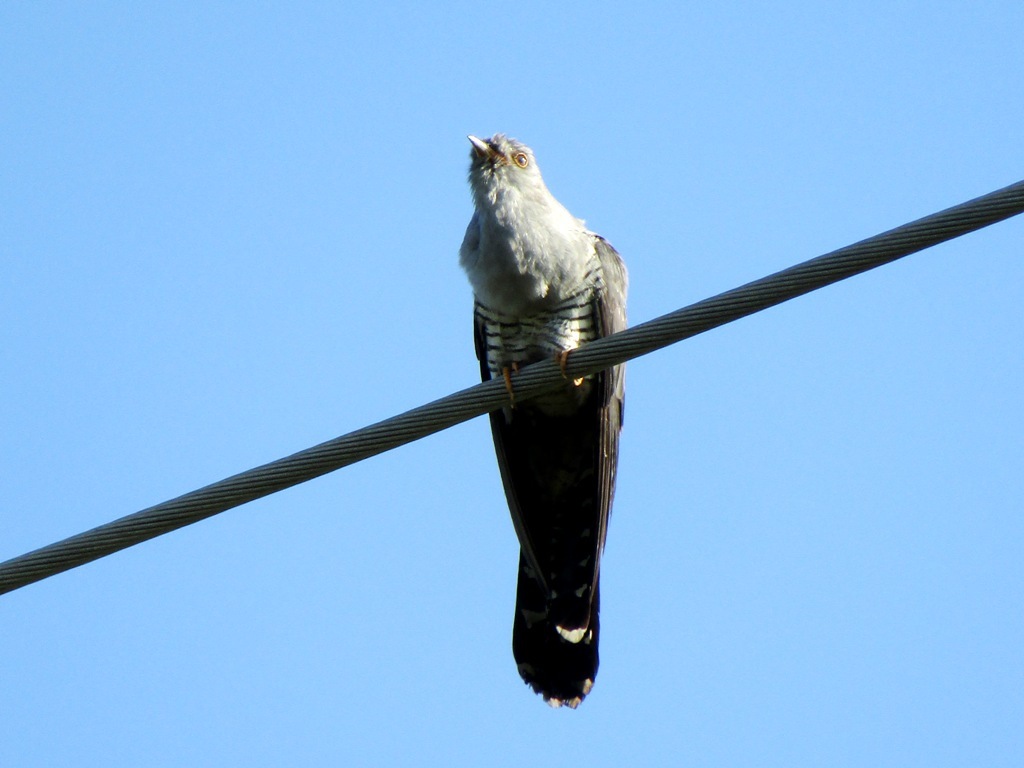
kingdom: Animalia
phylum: Chordata
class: Aves
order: Cuculiformes
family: Cuculidae
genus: Cuculus
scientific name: Cuculus canorus
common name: Common cuckoo
